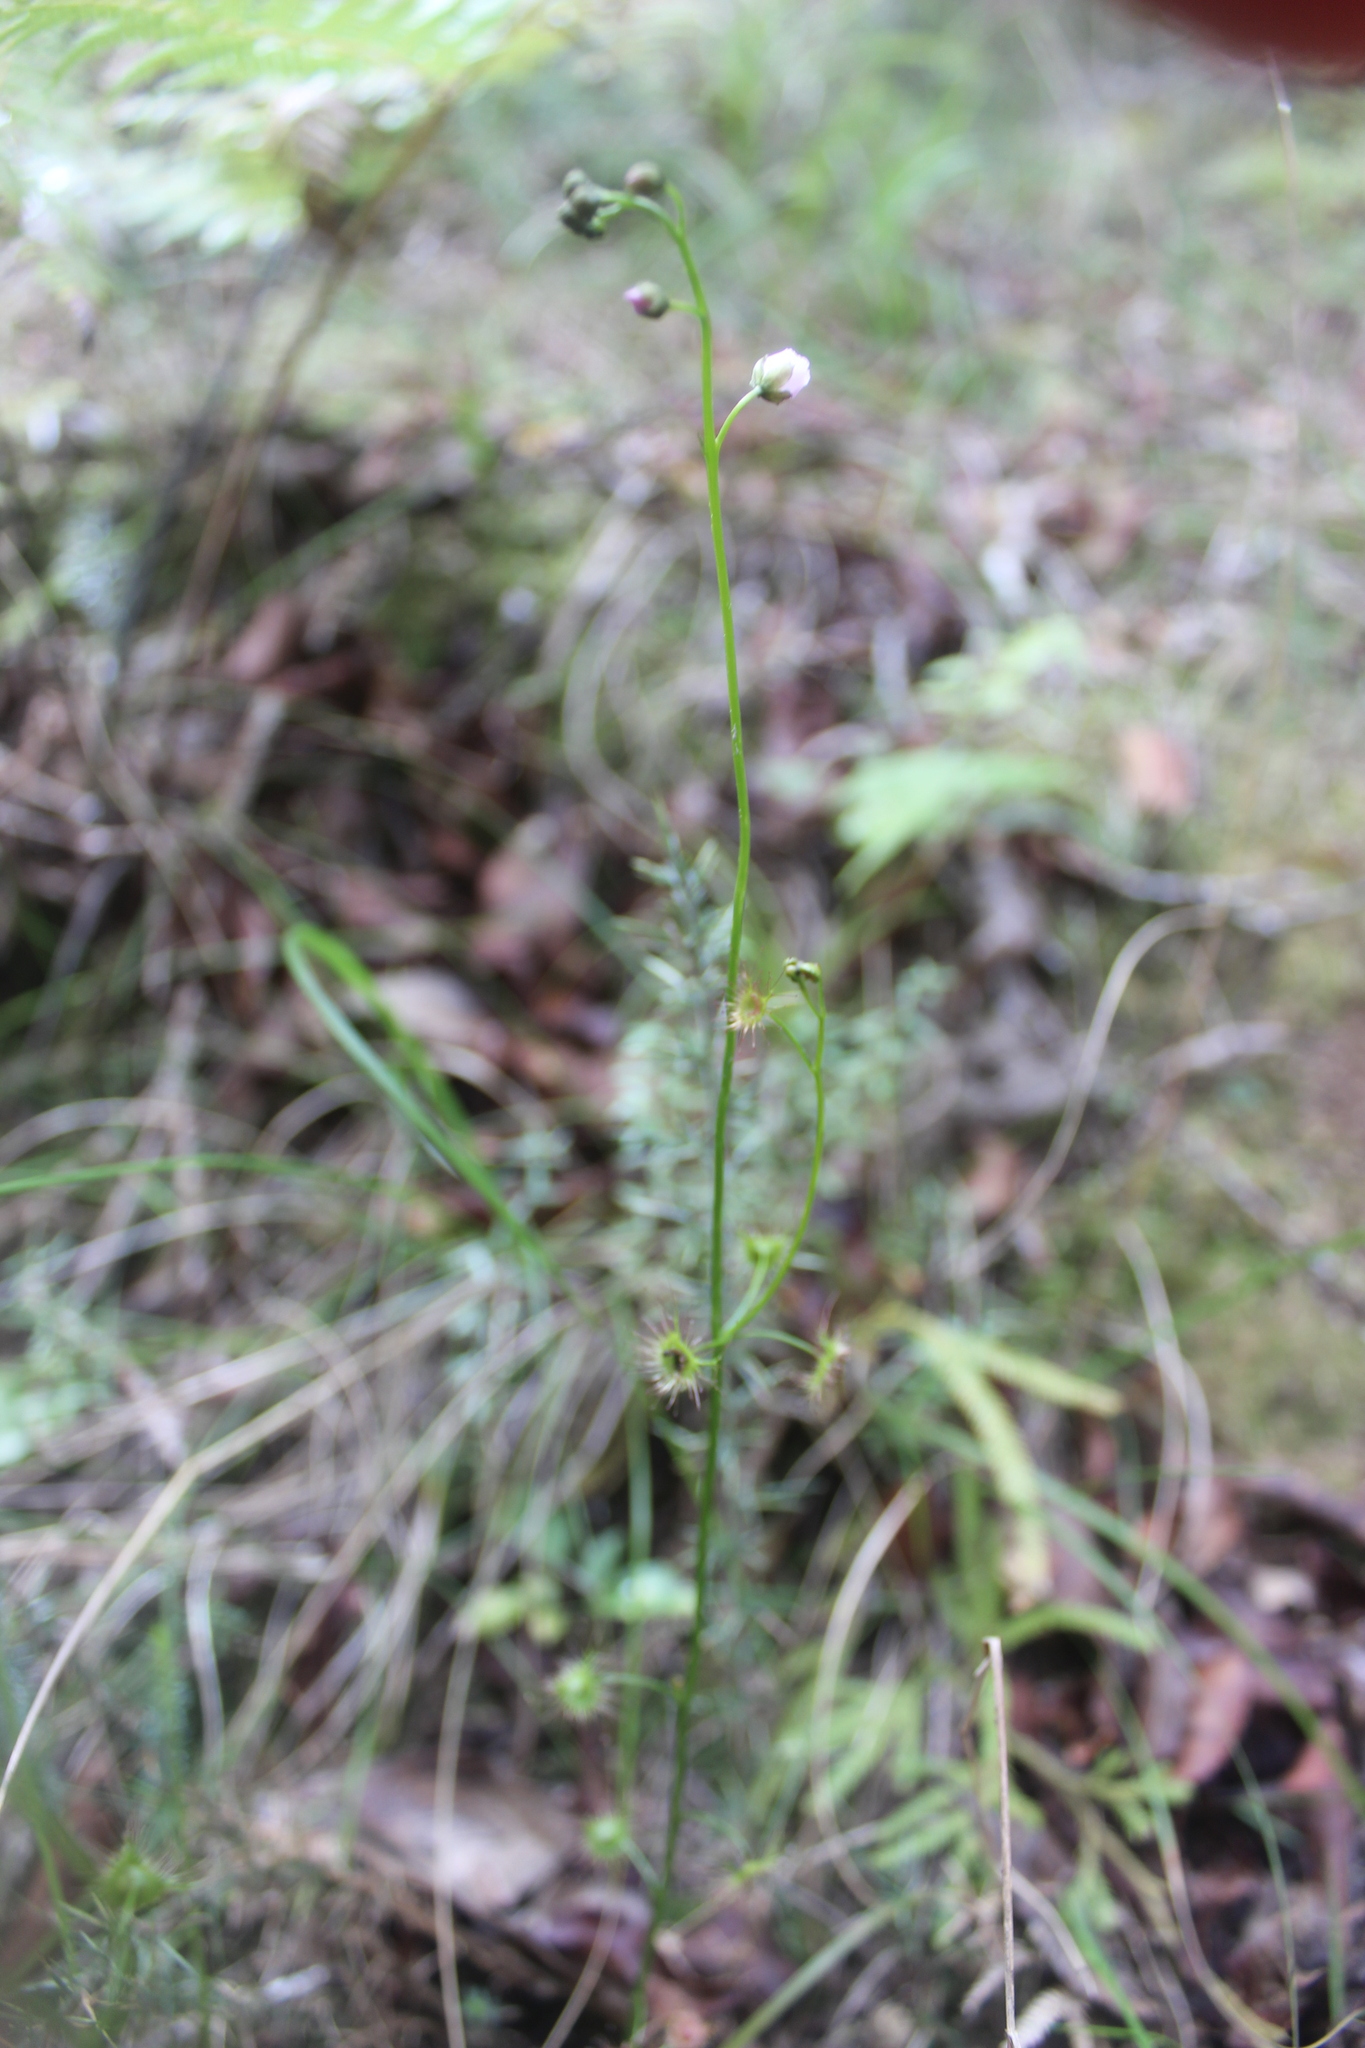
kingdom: Plantae
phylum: Tracheophyta
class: Magnoliopsida
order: Caryophyllales
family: Droseraceae
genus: Drosera
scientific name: Drosera peltata
